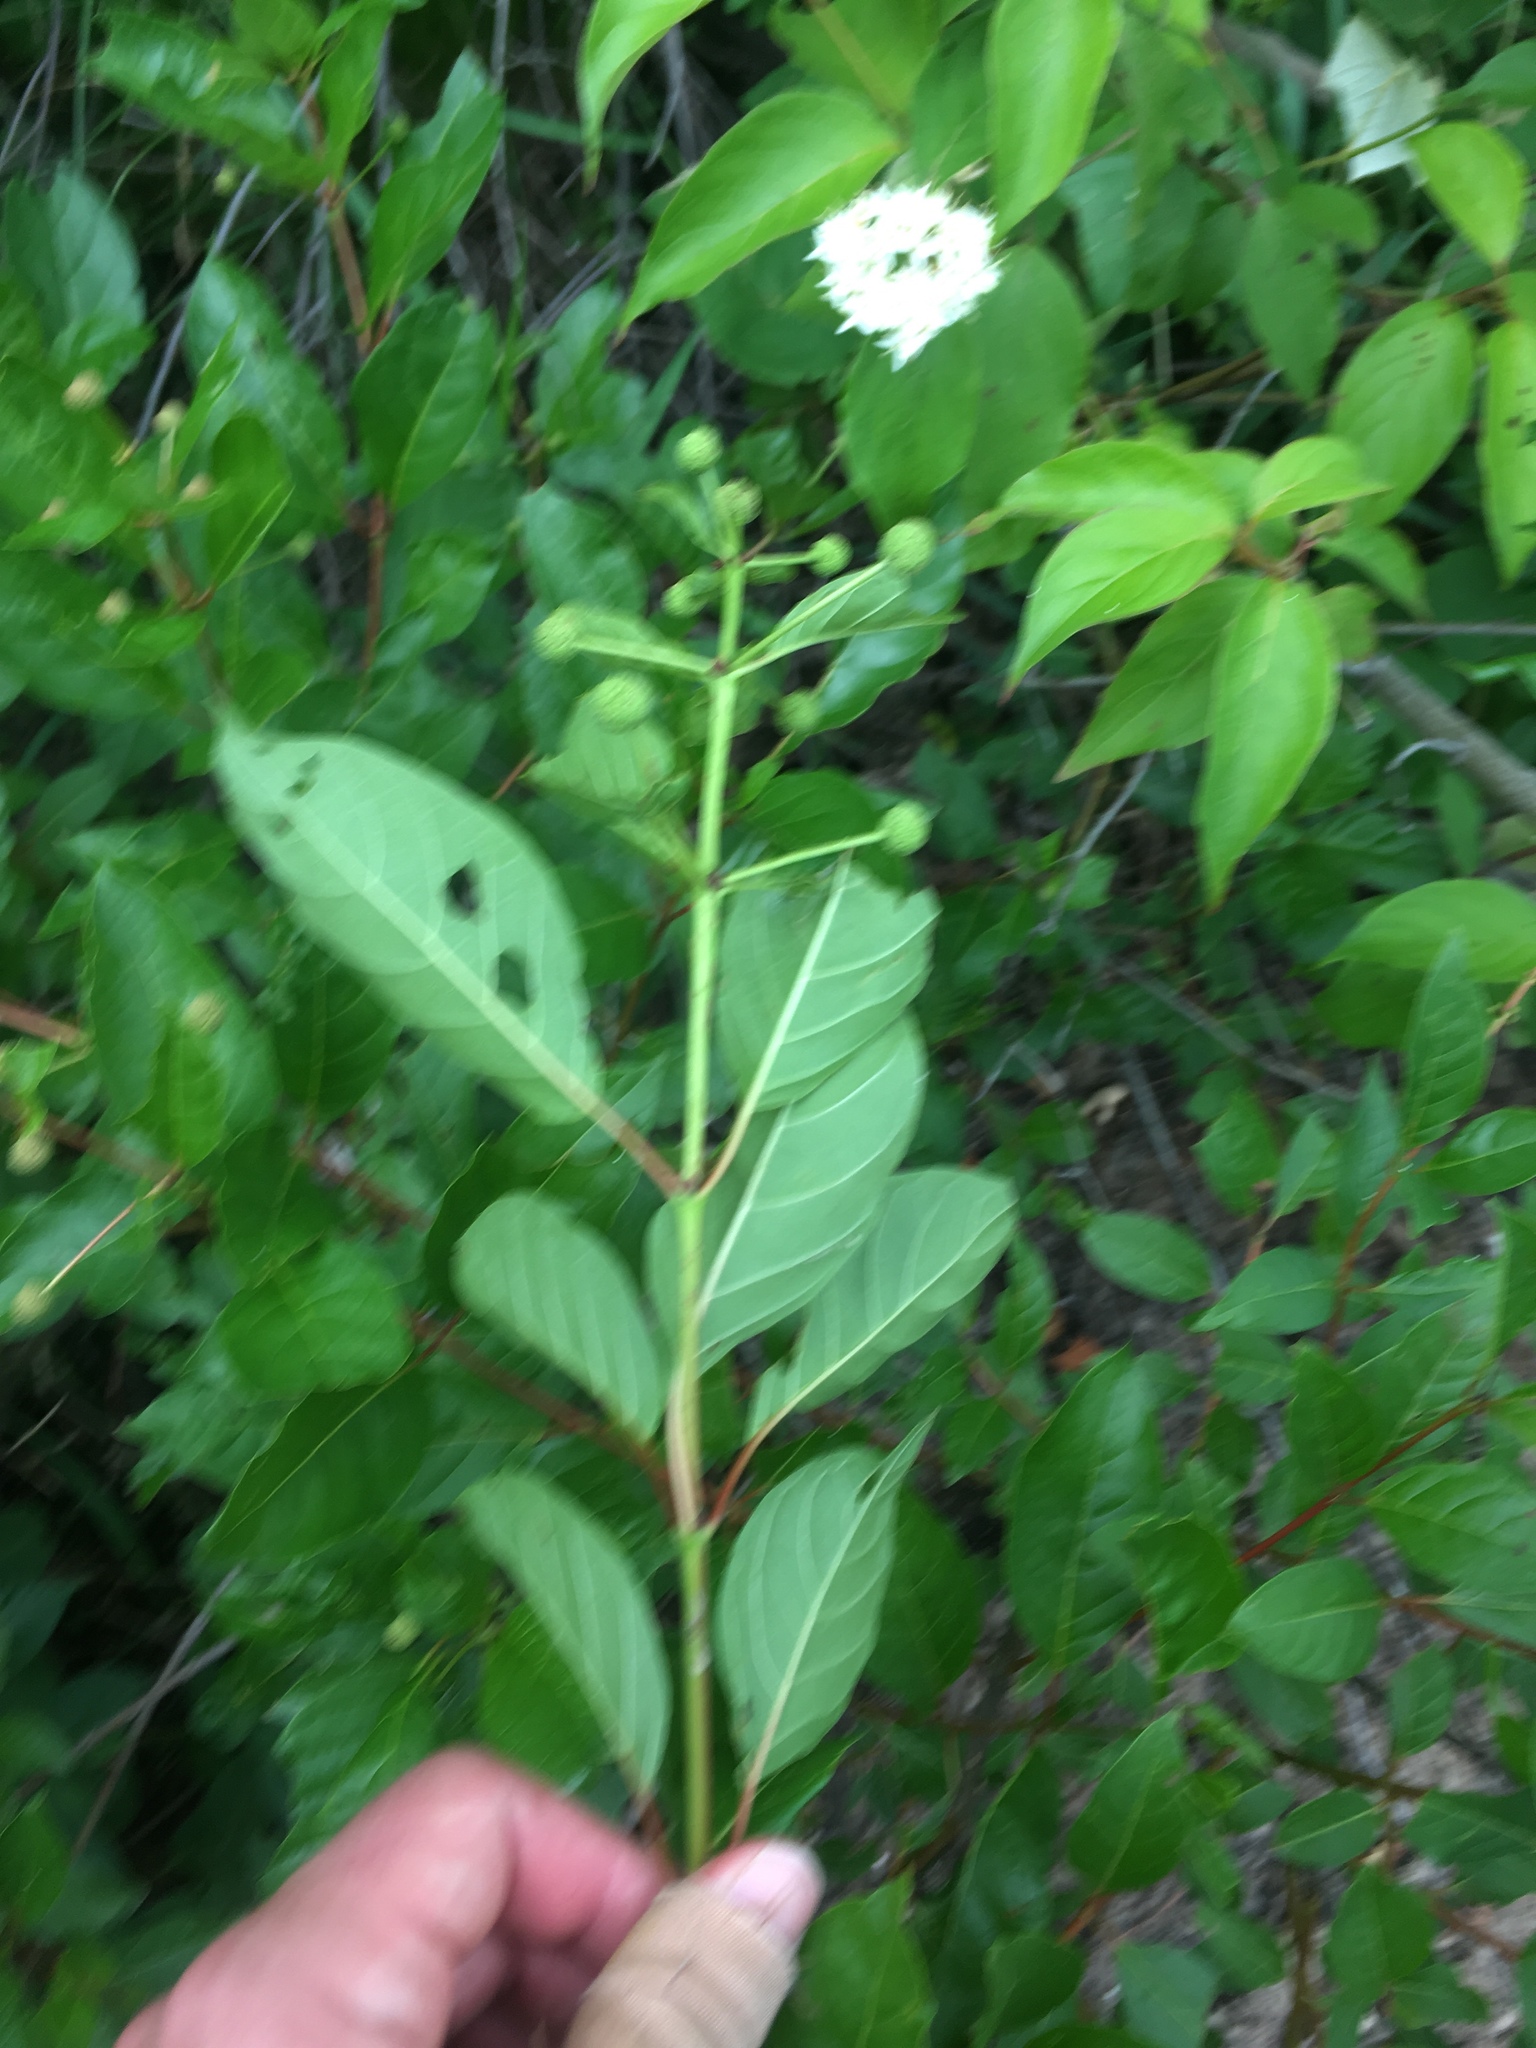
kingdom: Plantae
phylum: Tracheophyta
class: Magnoliopsida
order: Gentianales
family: Rubiaceae
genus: Cephalanthus
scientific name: Cephalanthus occidentalis
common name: Button-willow
